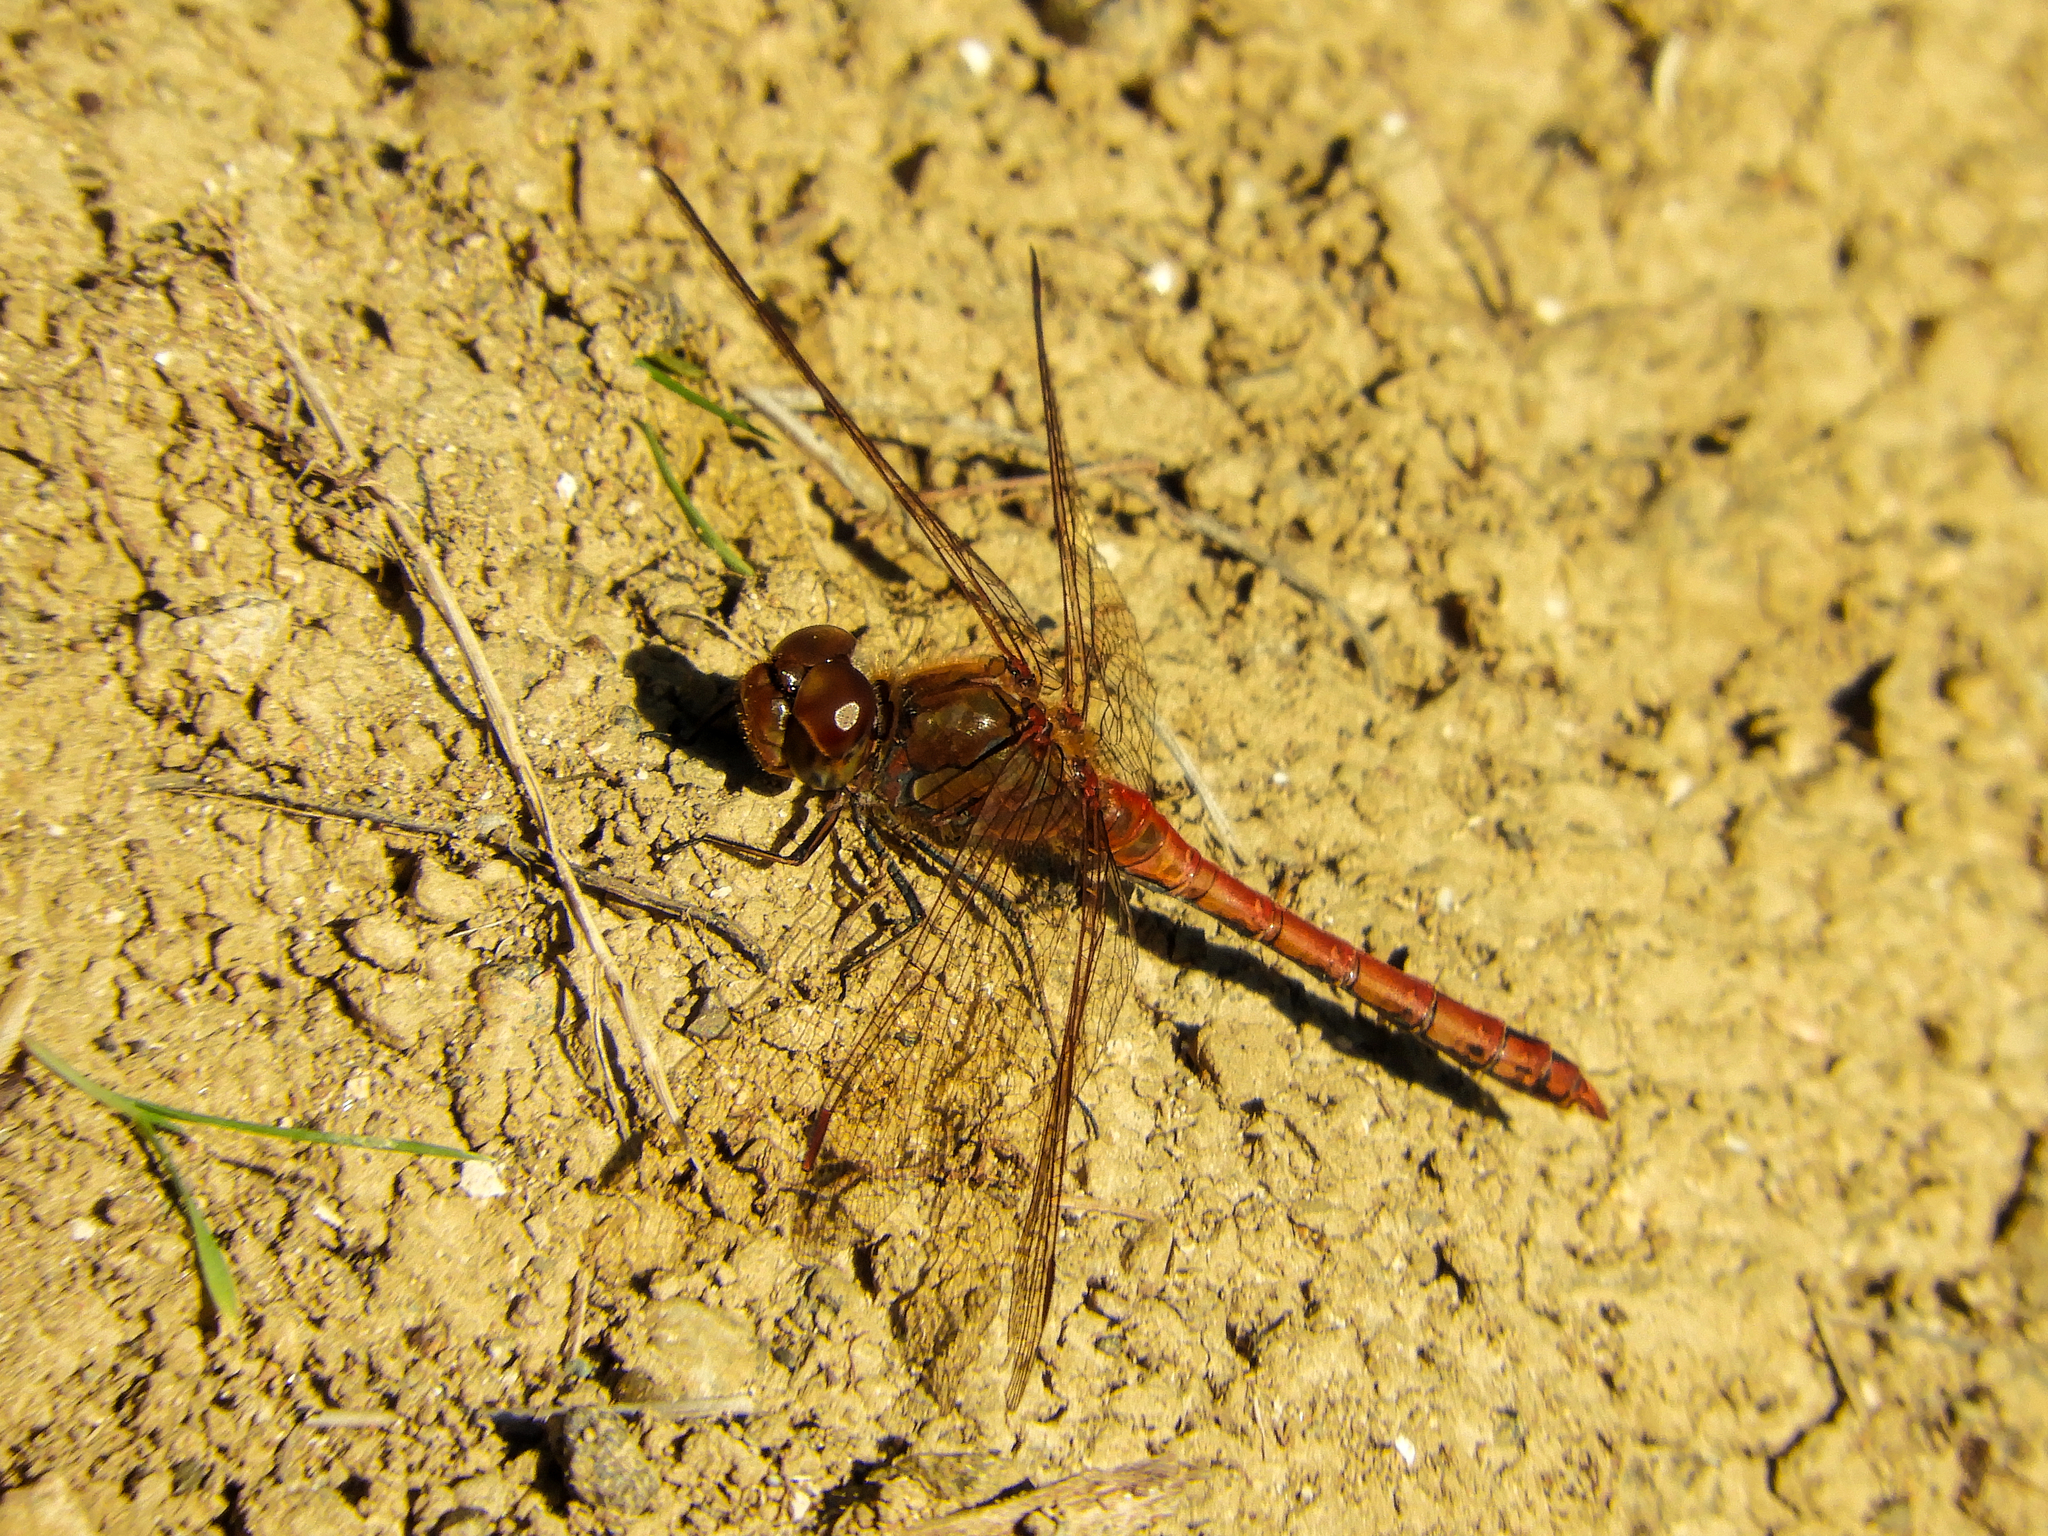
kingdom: Animalia
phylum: Arthropoda
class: Insecta
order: Odonata
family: Libellulidae
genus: Sympetrum
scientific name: Sympetrum striolatum
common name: Common darter
